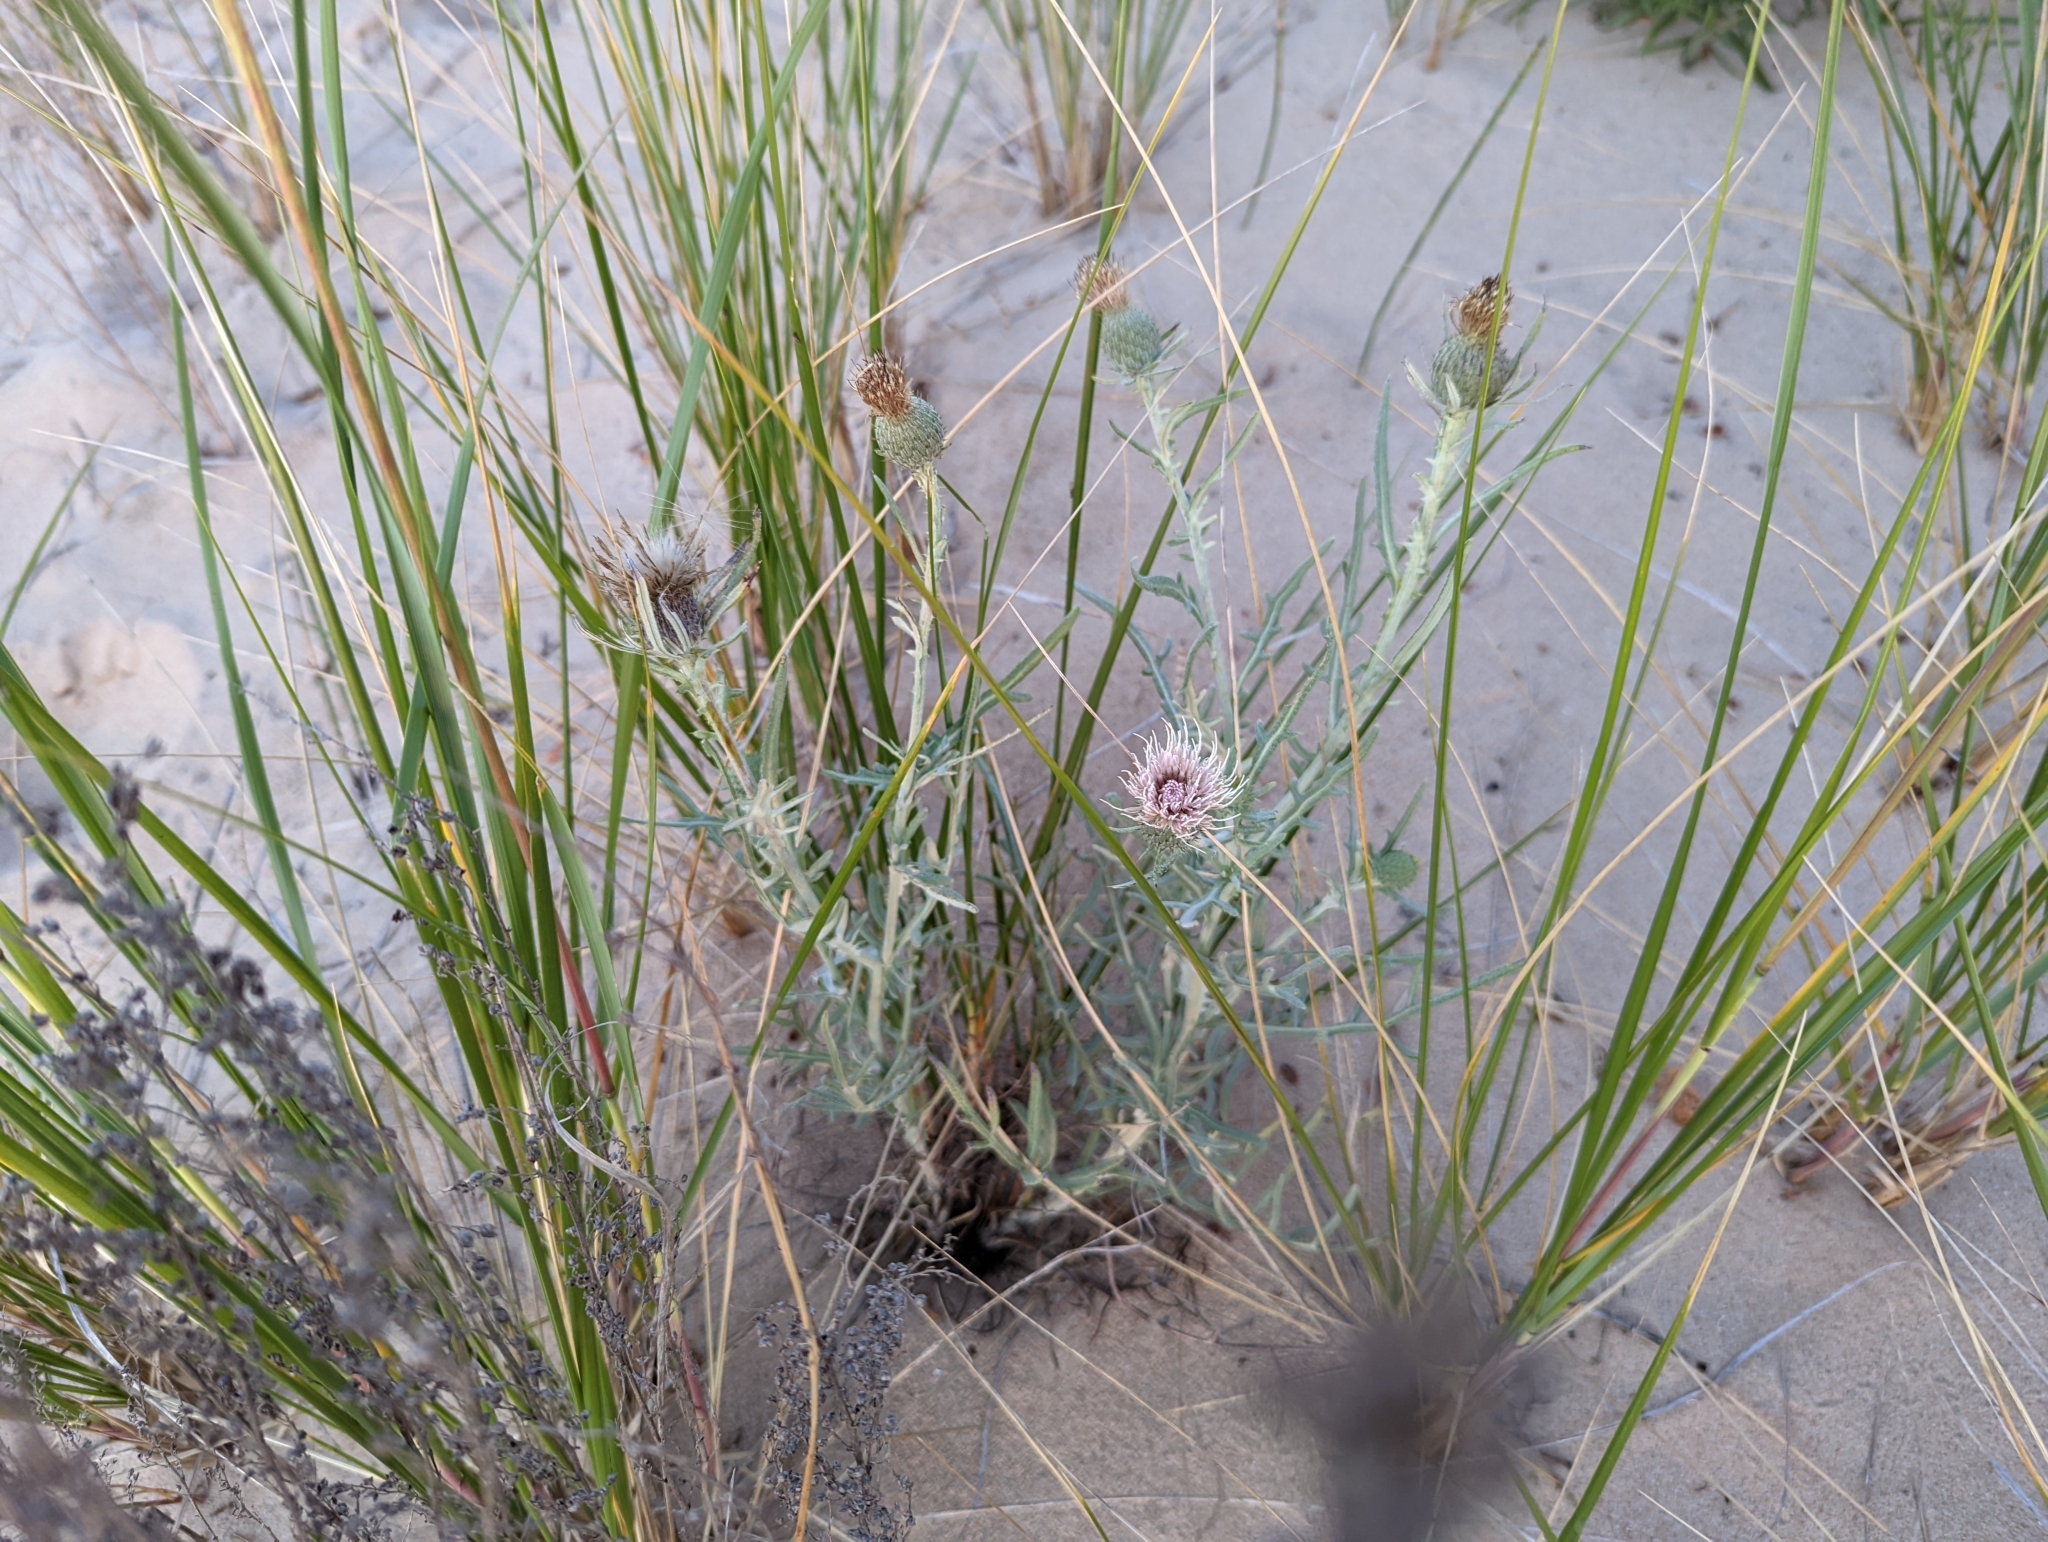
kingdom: Plantae
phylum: Tracheophyta
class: Magnoliopsida
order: Asterales
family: Asteraceae
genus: Cirsium
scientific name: Cirsium pitcheri
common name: Dune thistle
